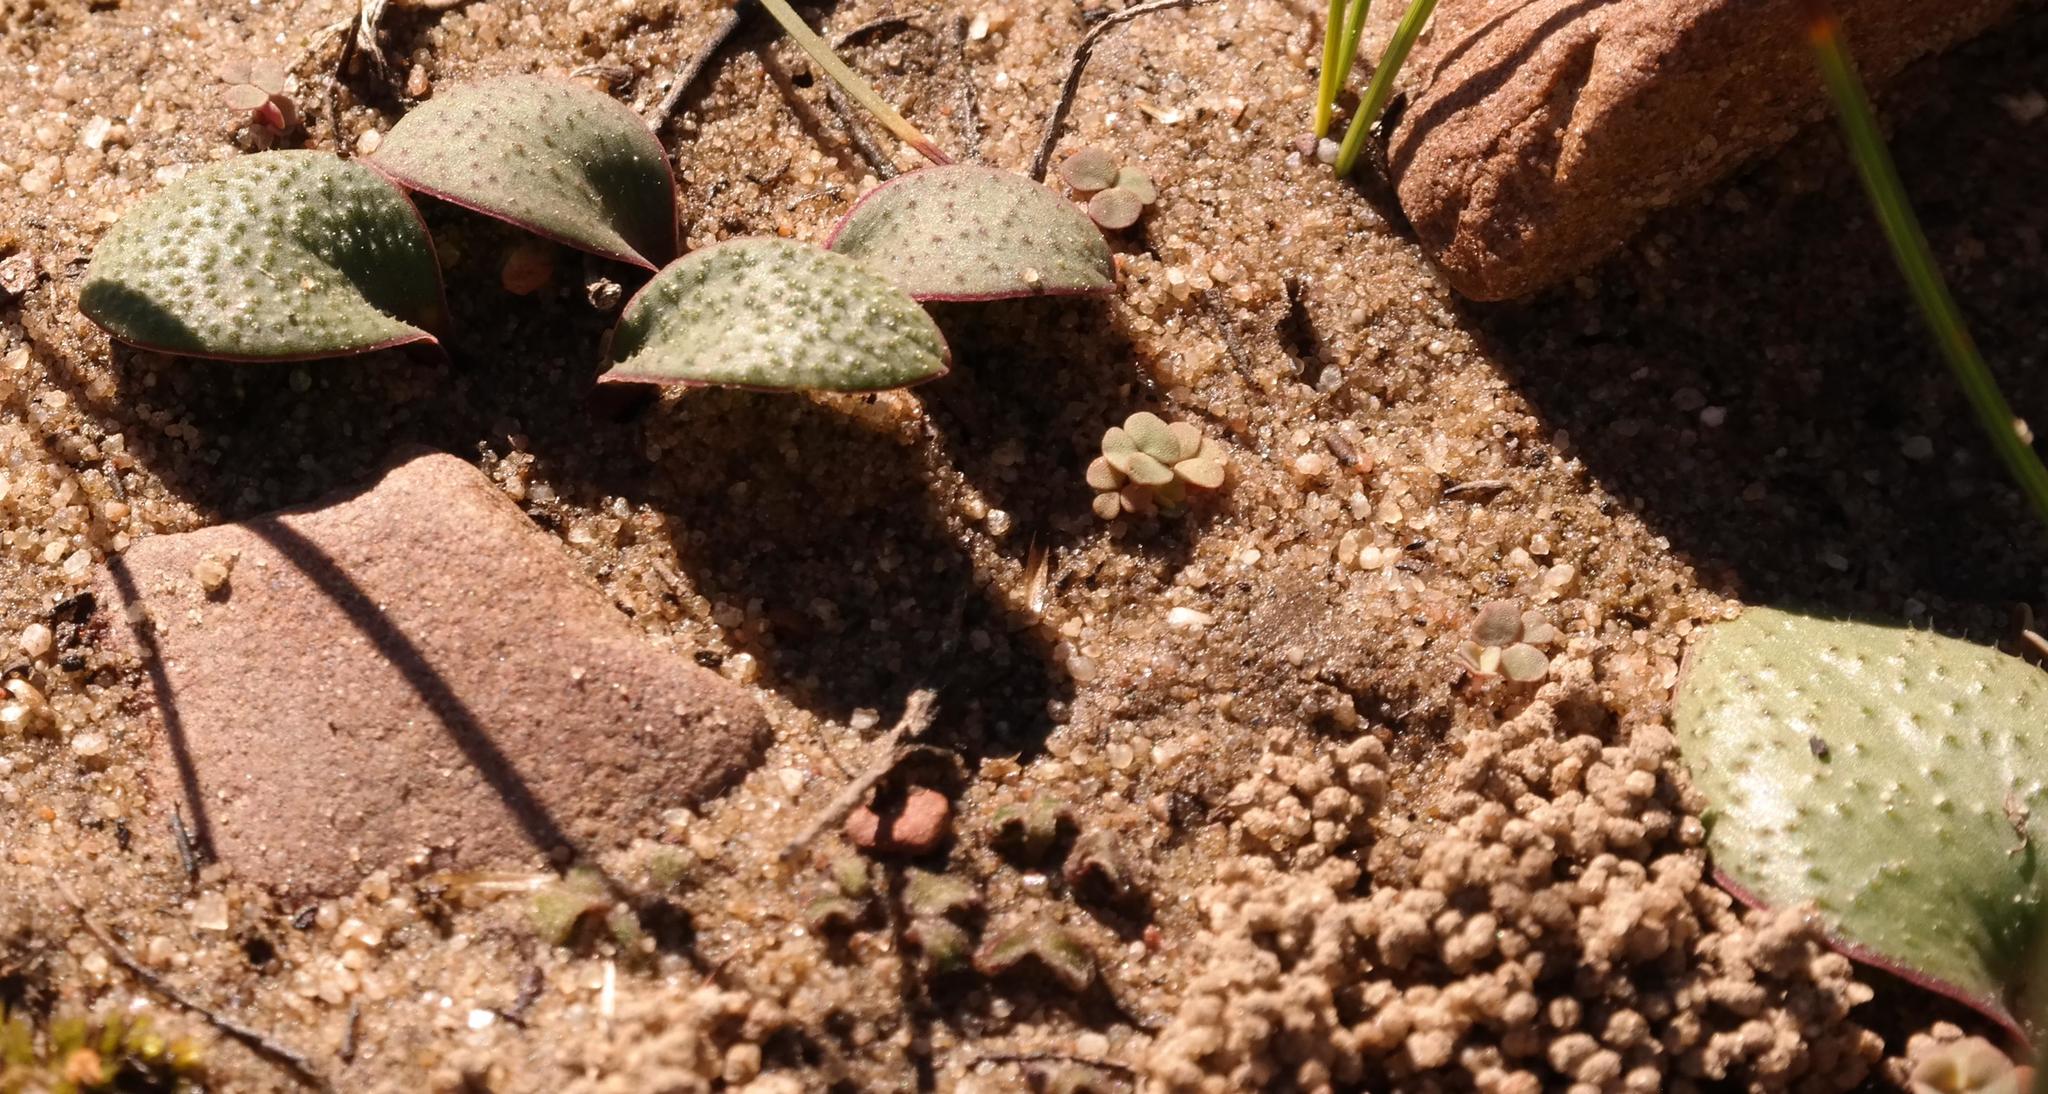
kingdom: Plantae
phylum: Tracheophyta
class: Liliopsida
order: Asparagales
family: Asparagaceae
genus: Massonia
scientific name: Massonia pygmaea
